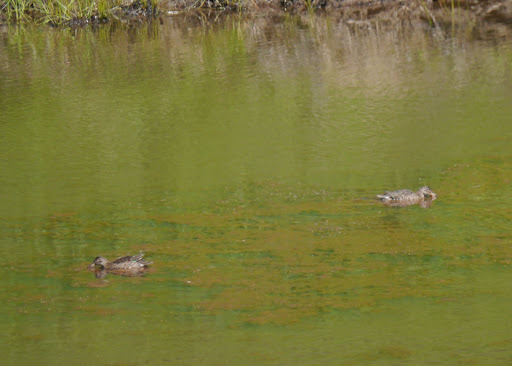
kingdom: Animalia
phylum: Chordata
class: Aves
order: Anseriformes
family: Anatidae
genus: Anas
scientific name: Anas platyrhynchos
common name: Mallard
